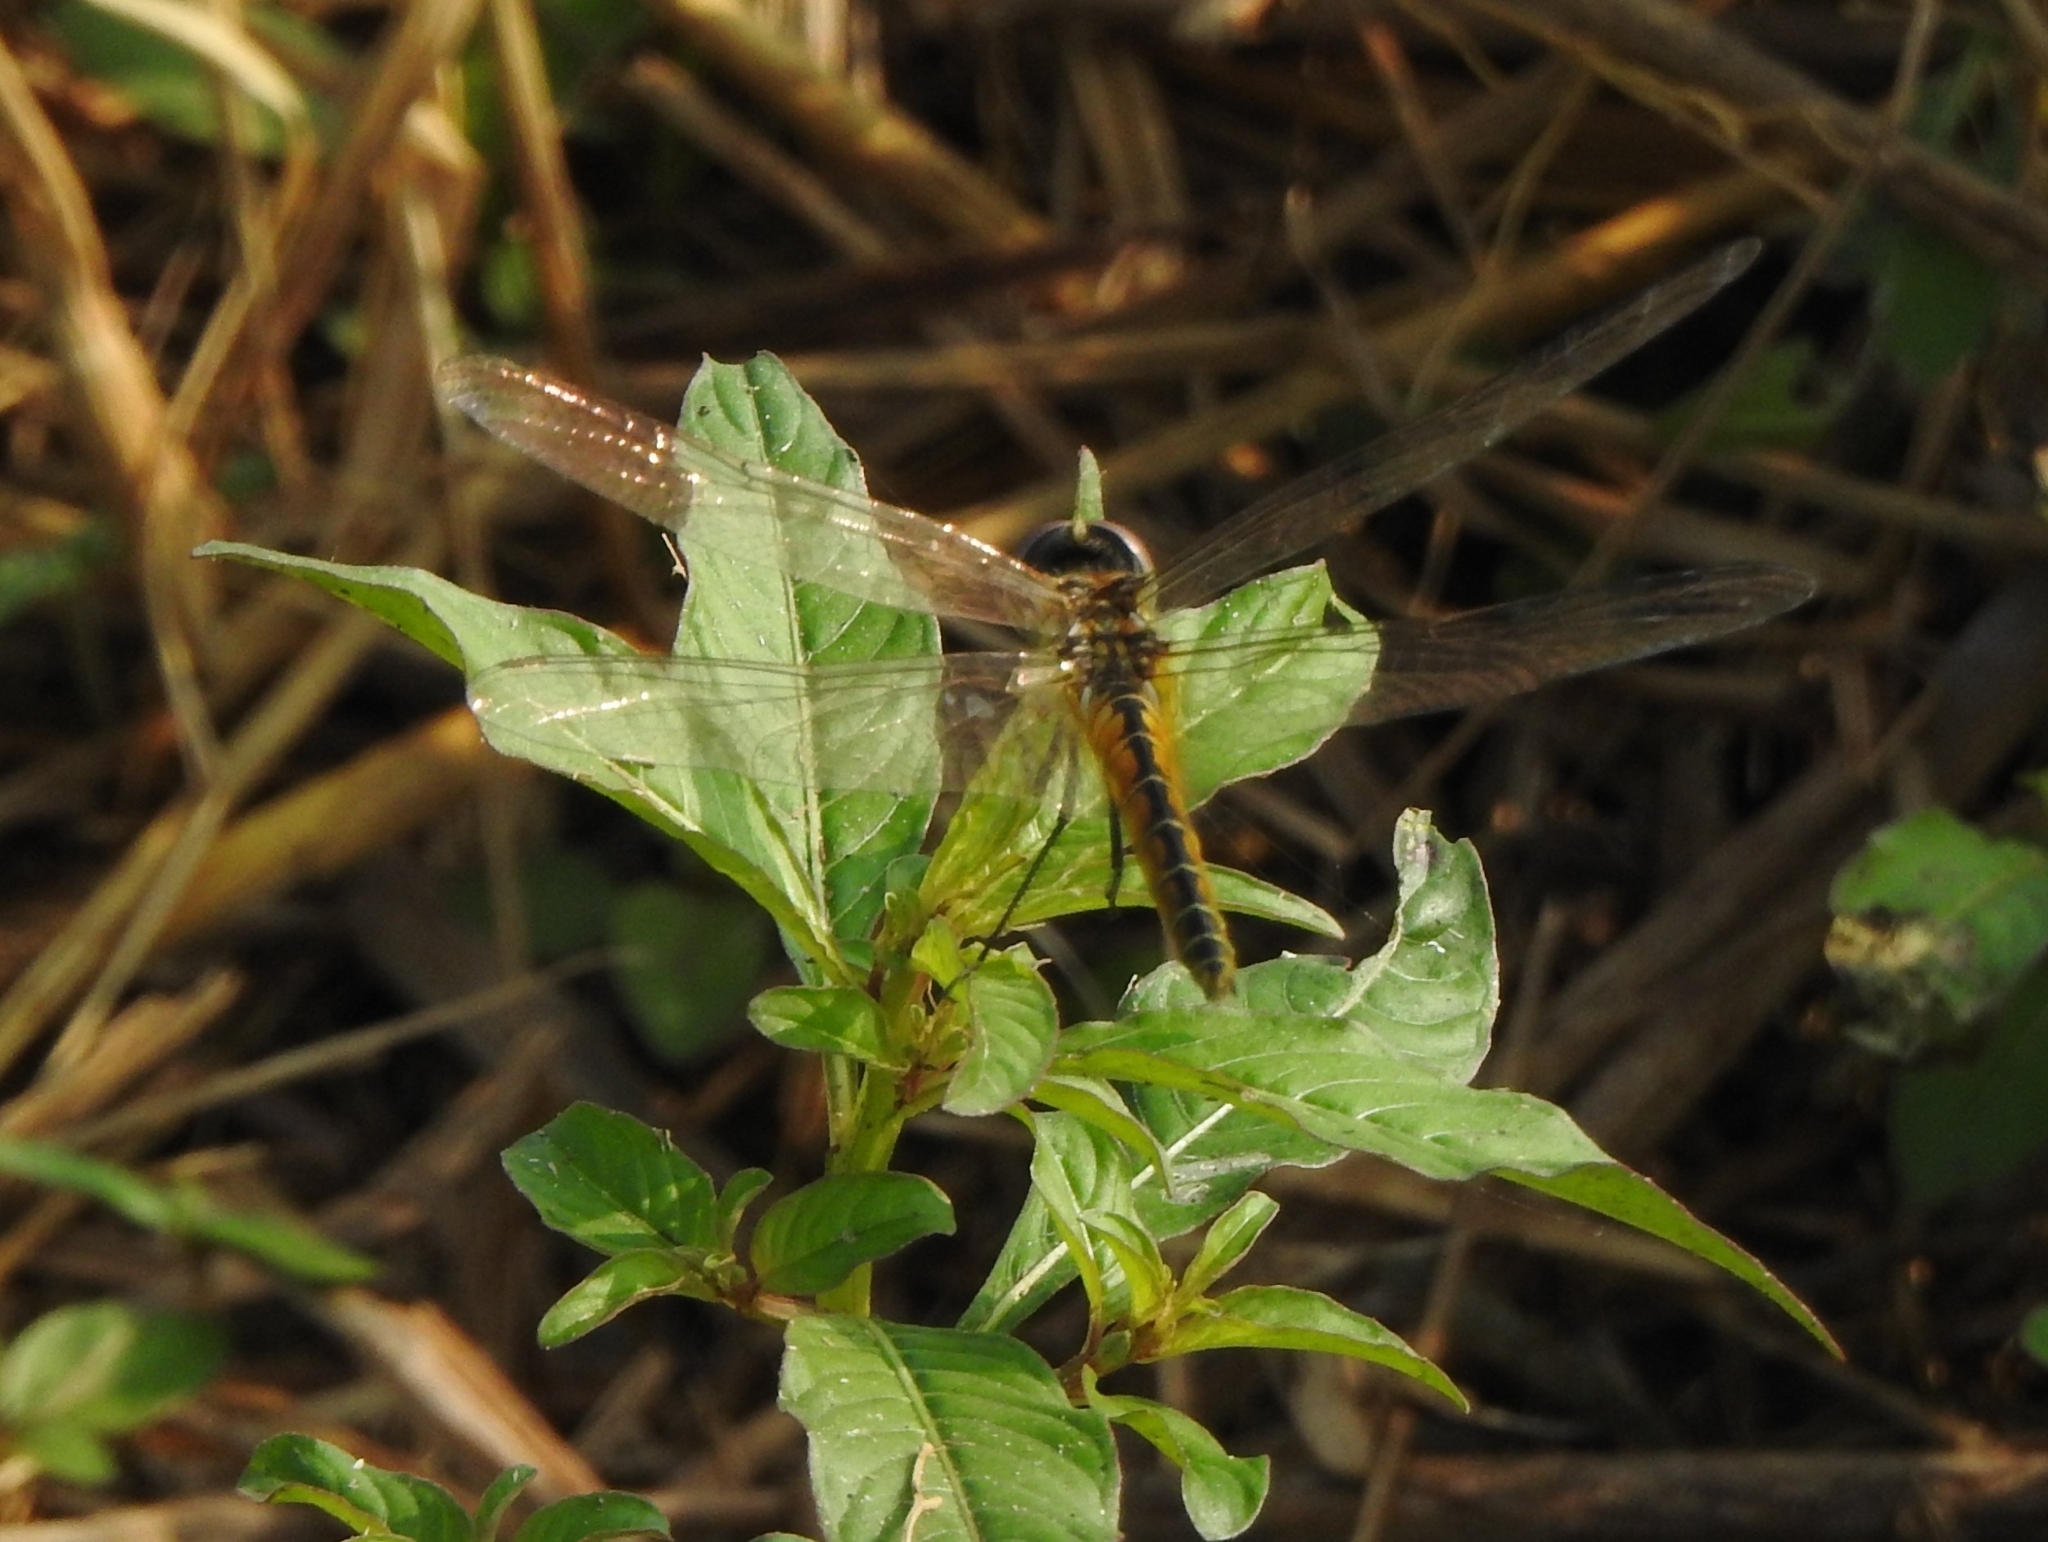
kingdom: Animalia
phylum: Arthropoda
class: Insecta
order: Odonata
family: Libellulidae
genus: Macrodiplax
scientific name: Macrodiplax cora
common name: Coastal glider
